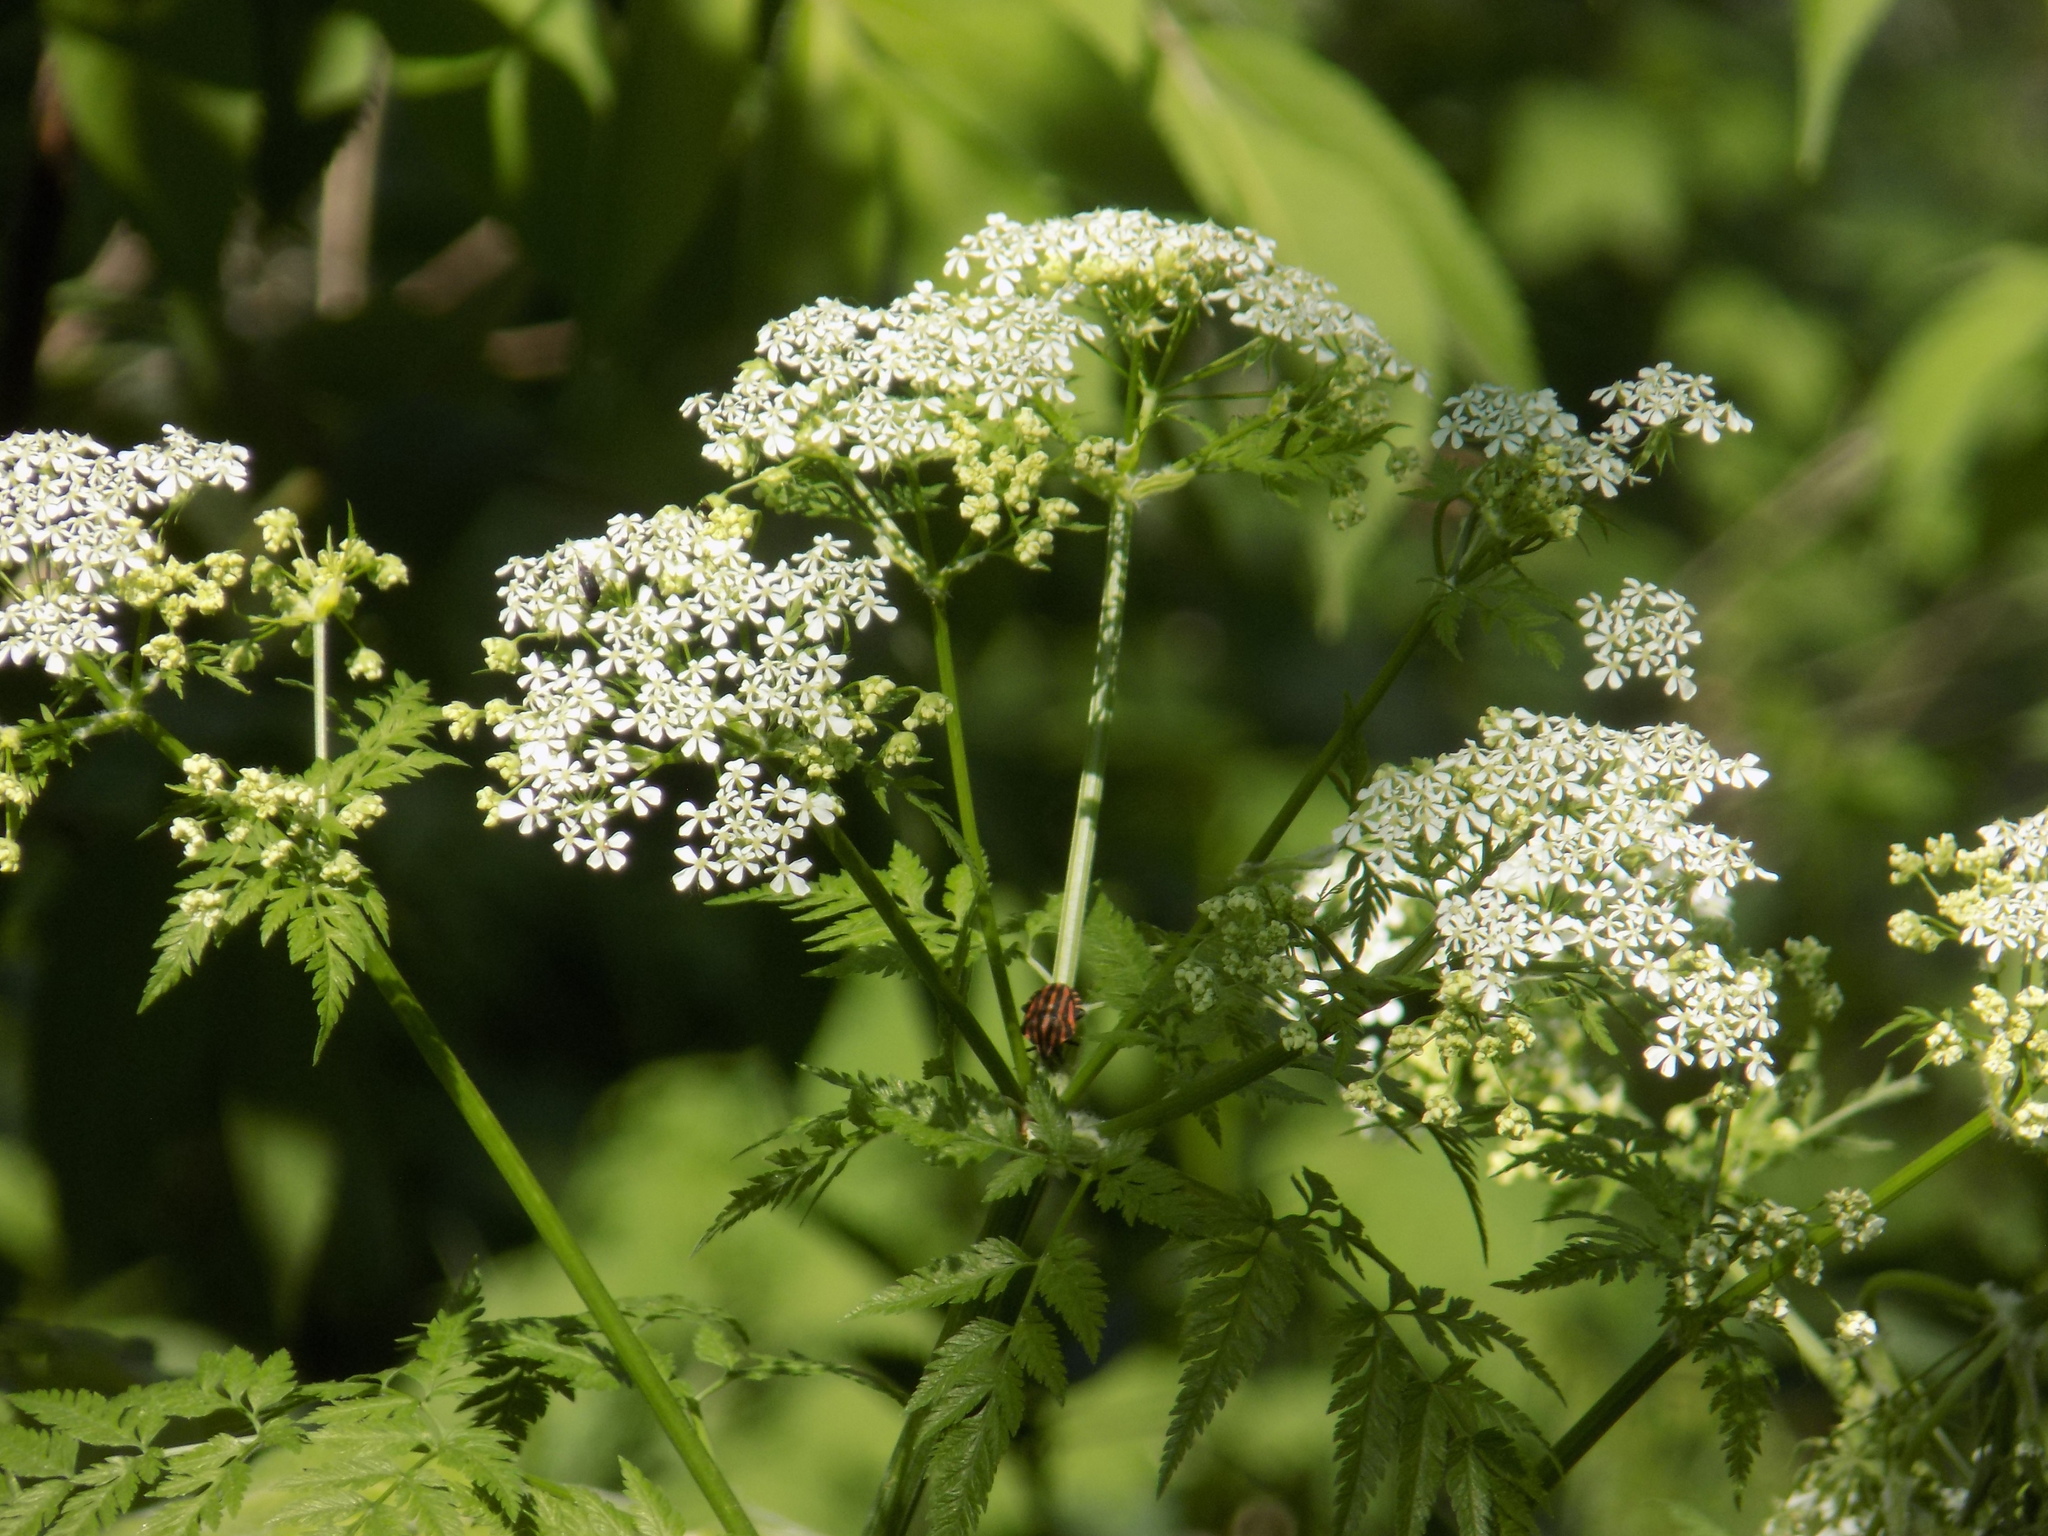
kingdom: Animalia
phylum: Arthropoda
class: Insecta
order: Hemiptera
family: Pentatomidae
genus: Graphosoma
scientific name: Graphosoma italicum
